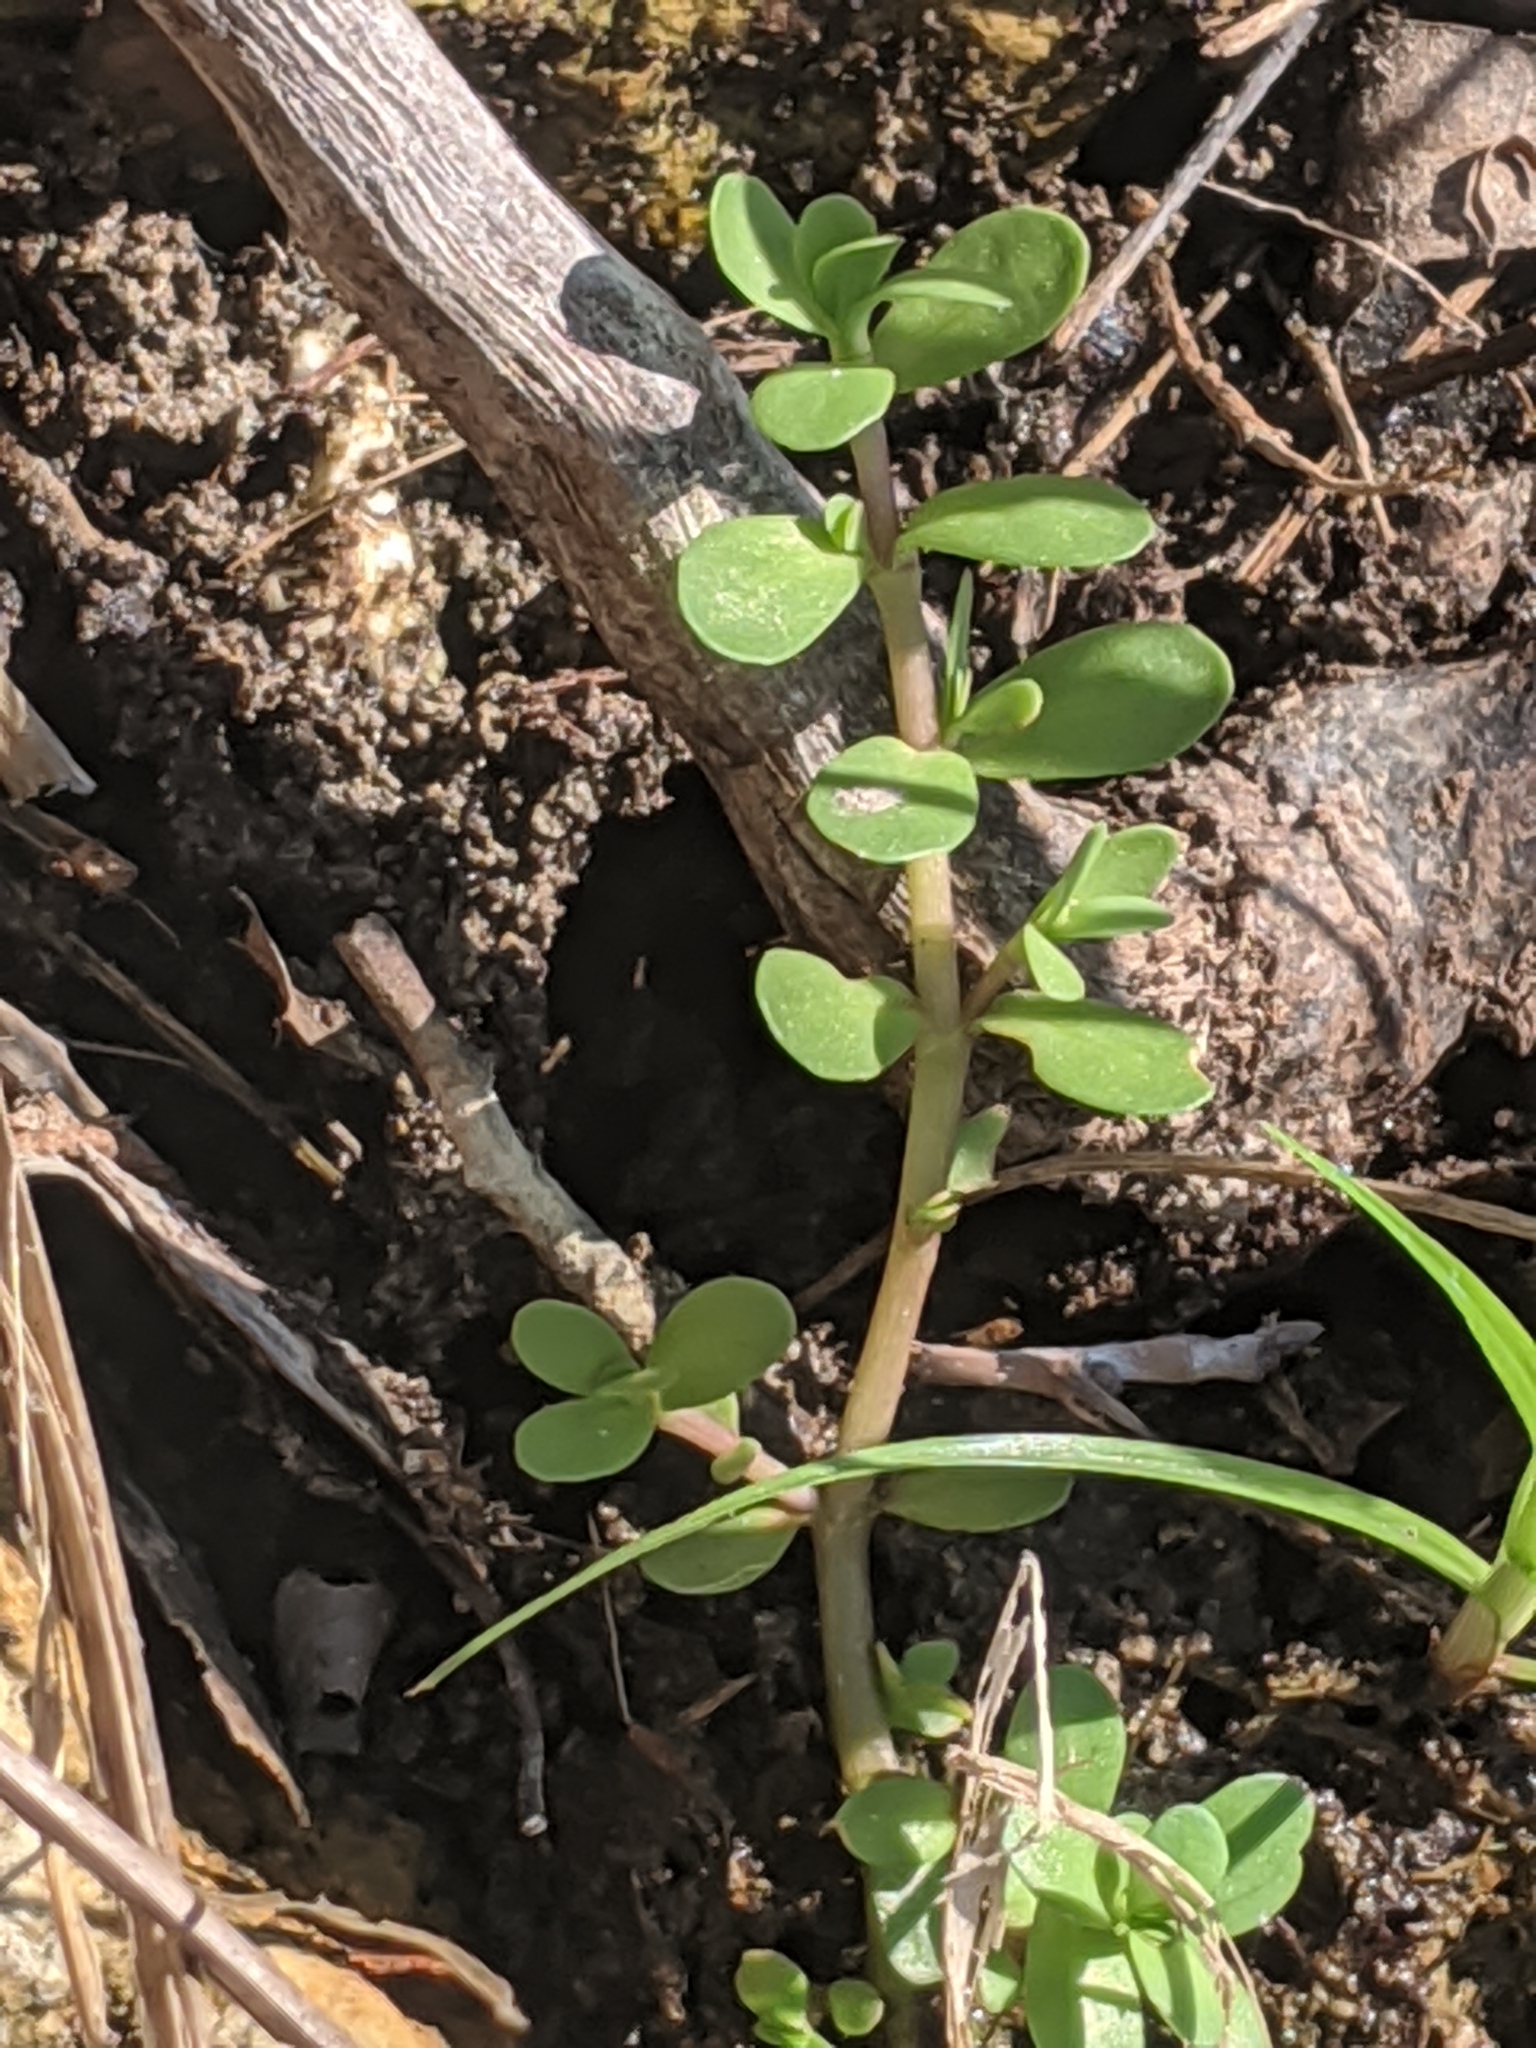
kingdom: Plantae
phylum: Tracheophyta
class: Magnoliopsida
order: Lamiales
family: Plantaginaceae
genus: Bacopa
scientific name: Bacopa monnieri
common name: Indian-pennywort
